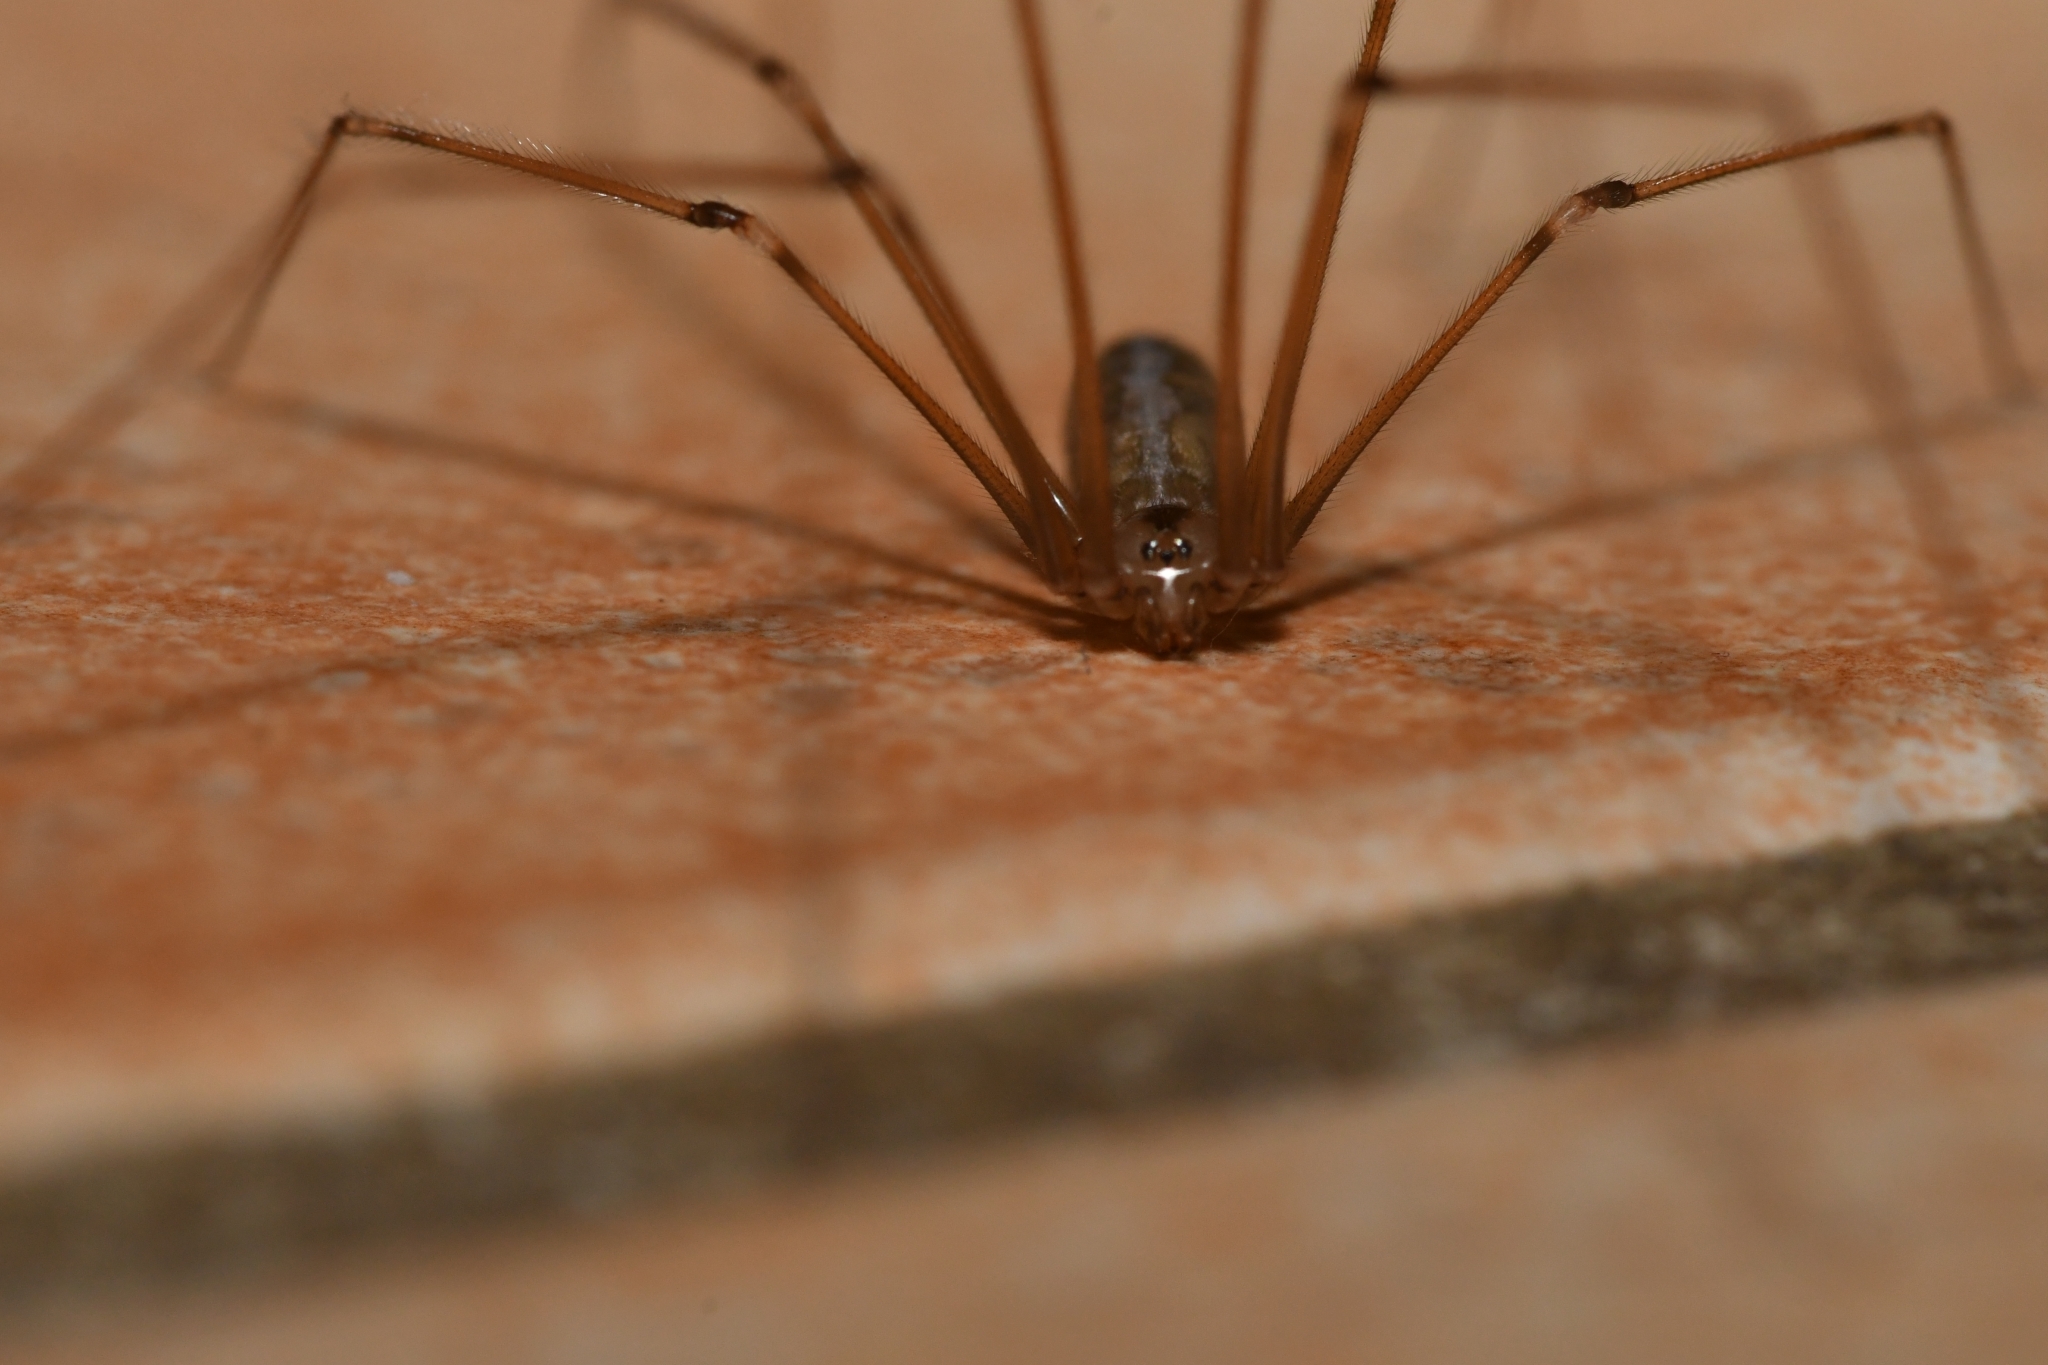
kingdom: Animalia
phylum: Arthropoda
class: Arachnida
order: Araneae
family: Pholcidae
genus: Pholcus
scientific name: Pholcus phalangioides
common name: Longbodied cellar spider
